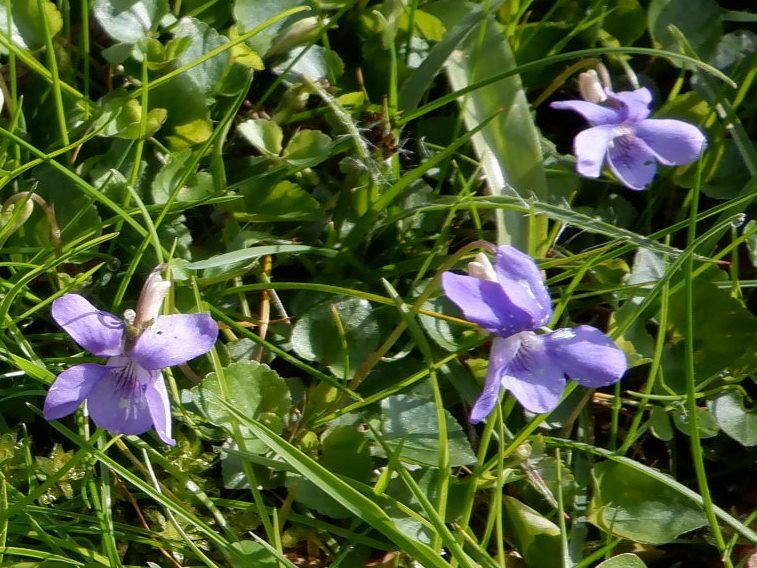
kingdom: Plantae
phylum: Tracheophyta
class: Magnoliopsida
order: Malpighiales
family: Violaceae
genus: Viola
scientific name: Viola riviniana
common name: Common dog-violet
